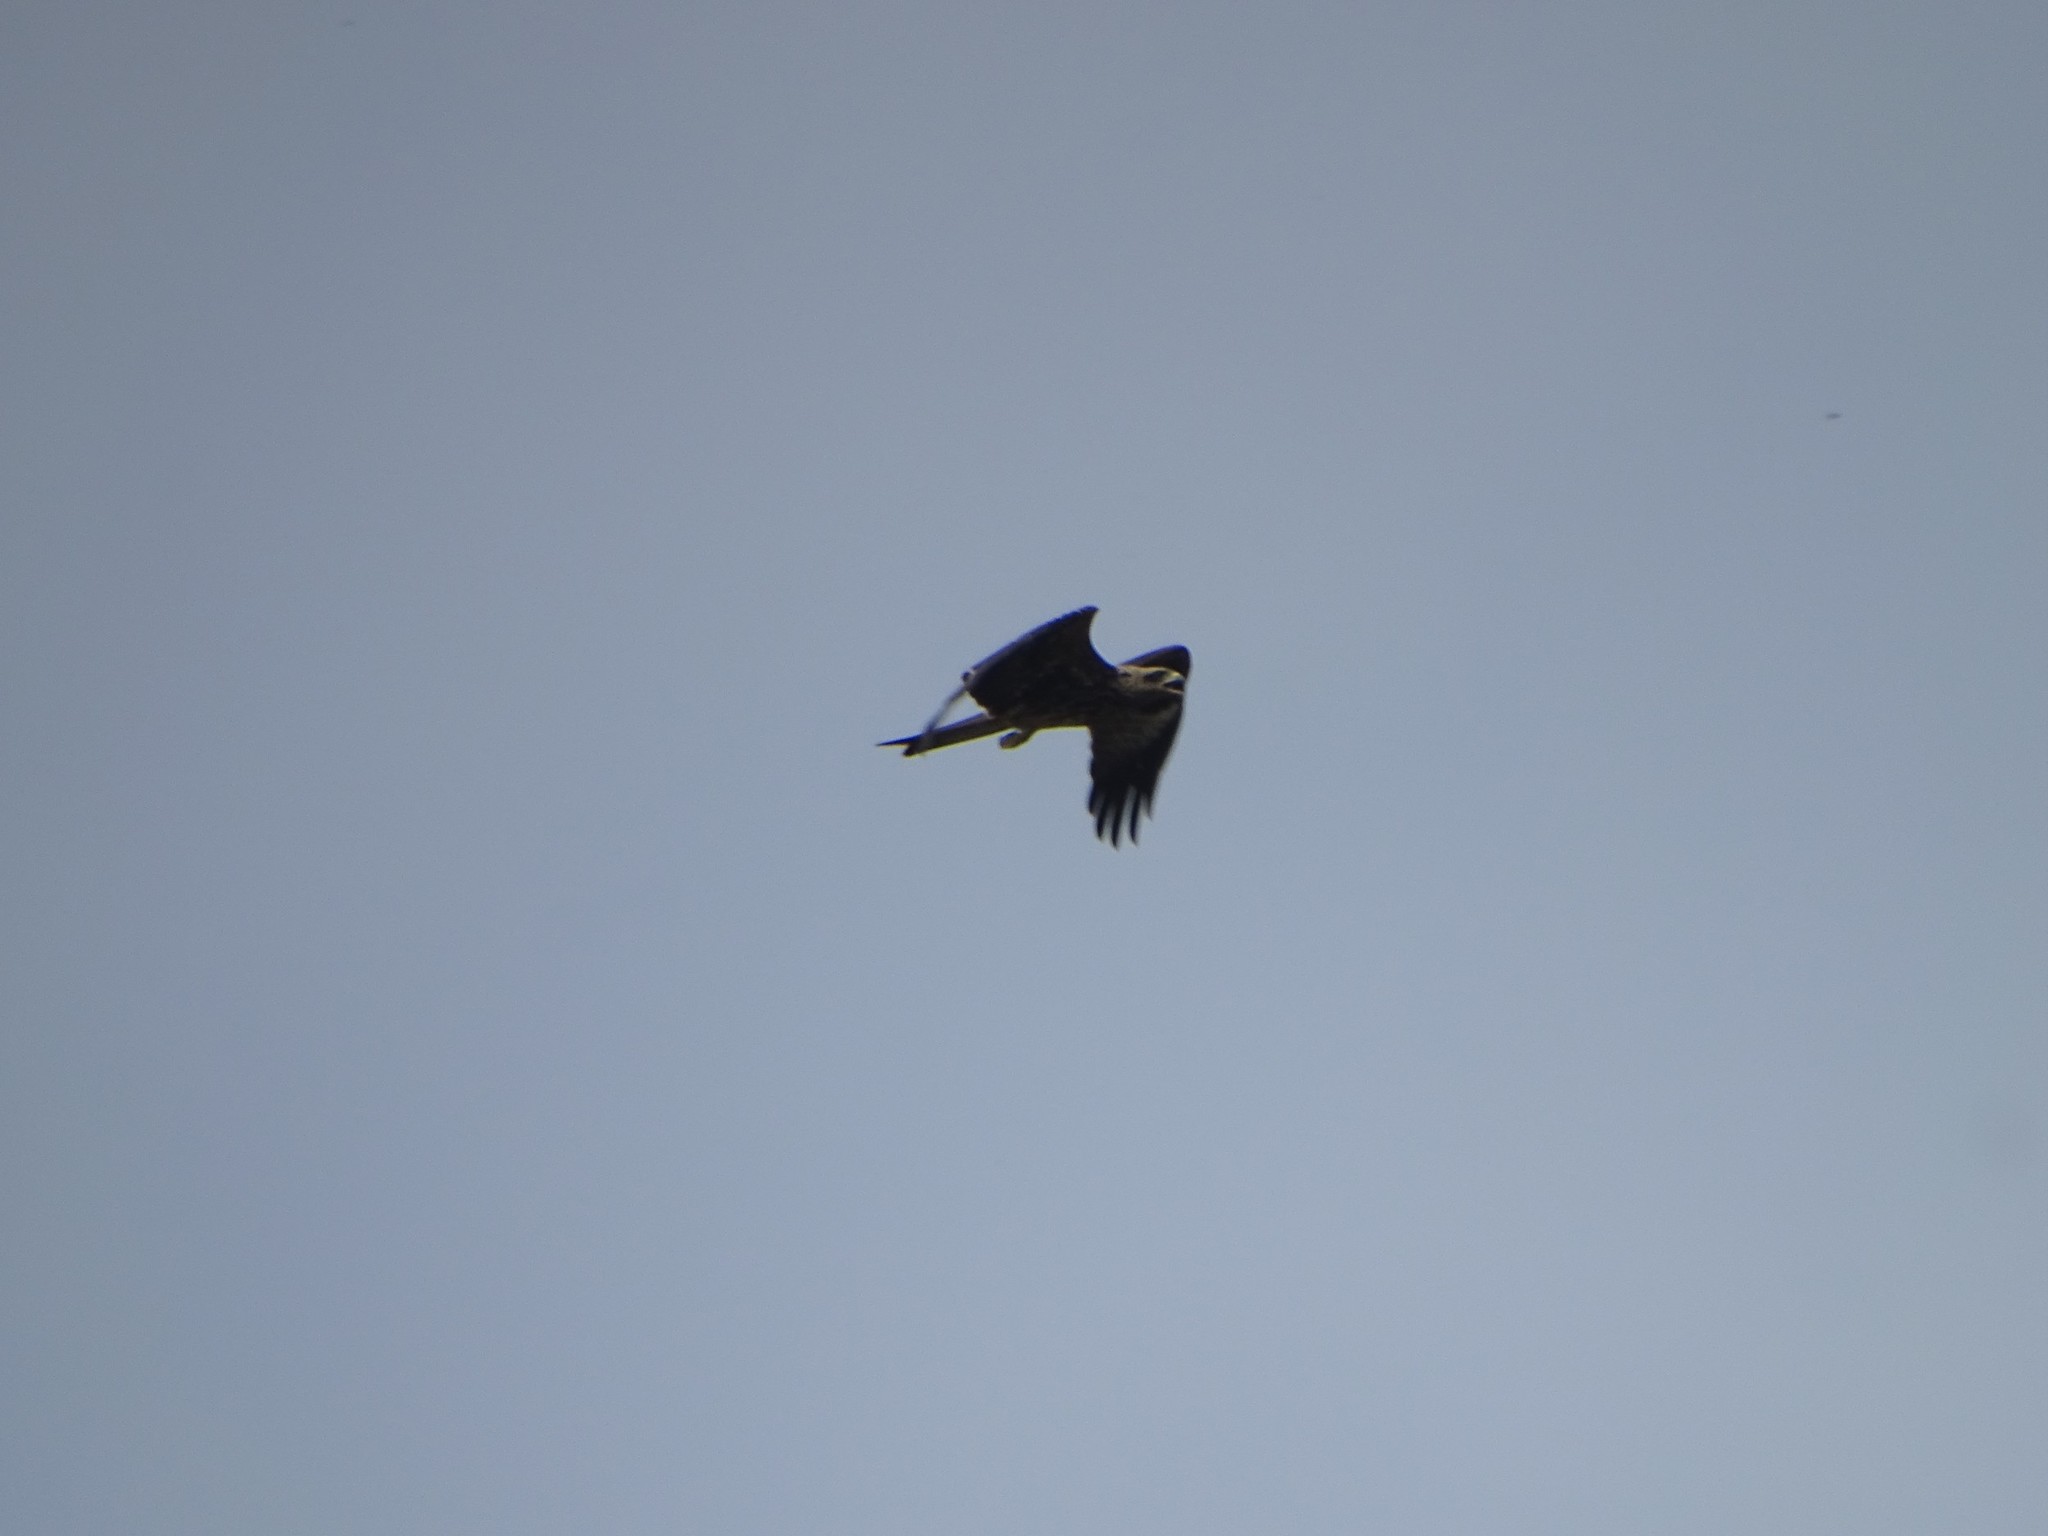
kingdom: Animalia
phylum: Chordata
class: Aves
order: Accipitriformes
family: Accipitridae
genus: Milvus
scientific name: Milvus migrans
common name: Black kite
